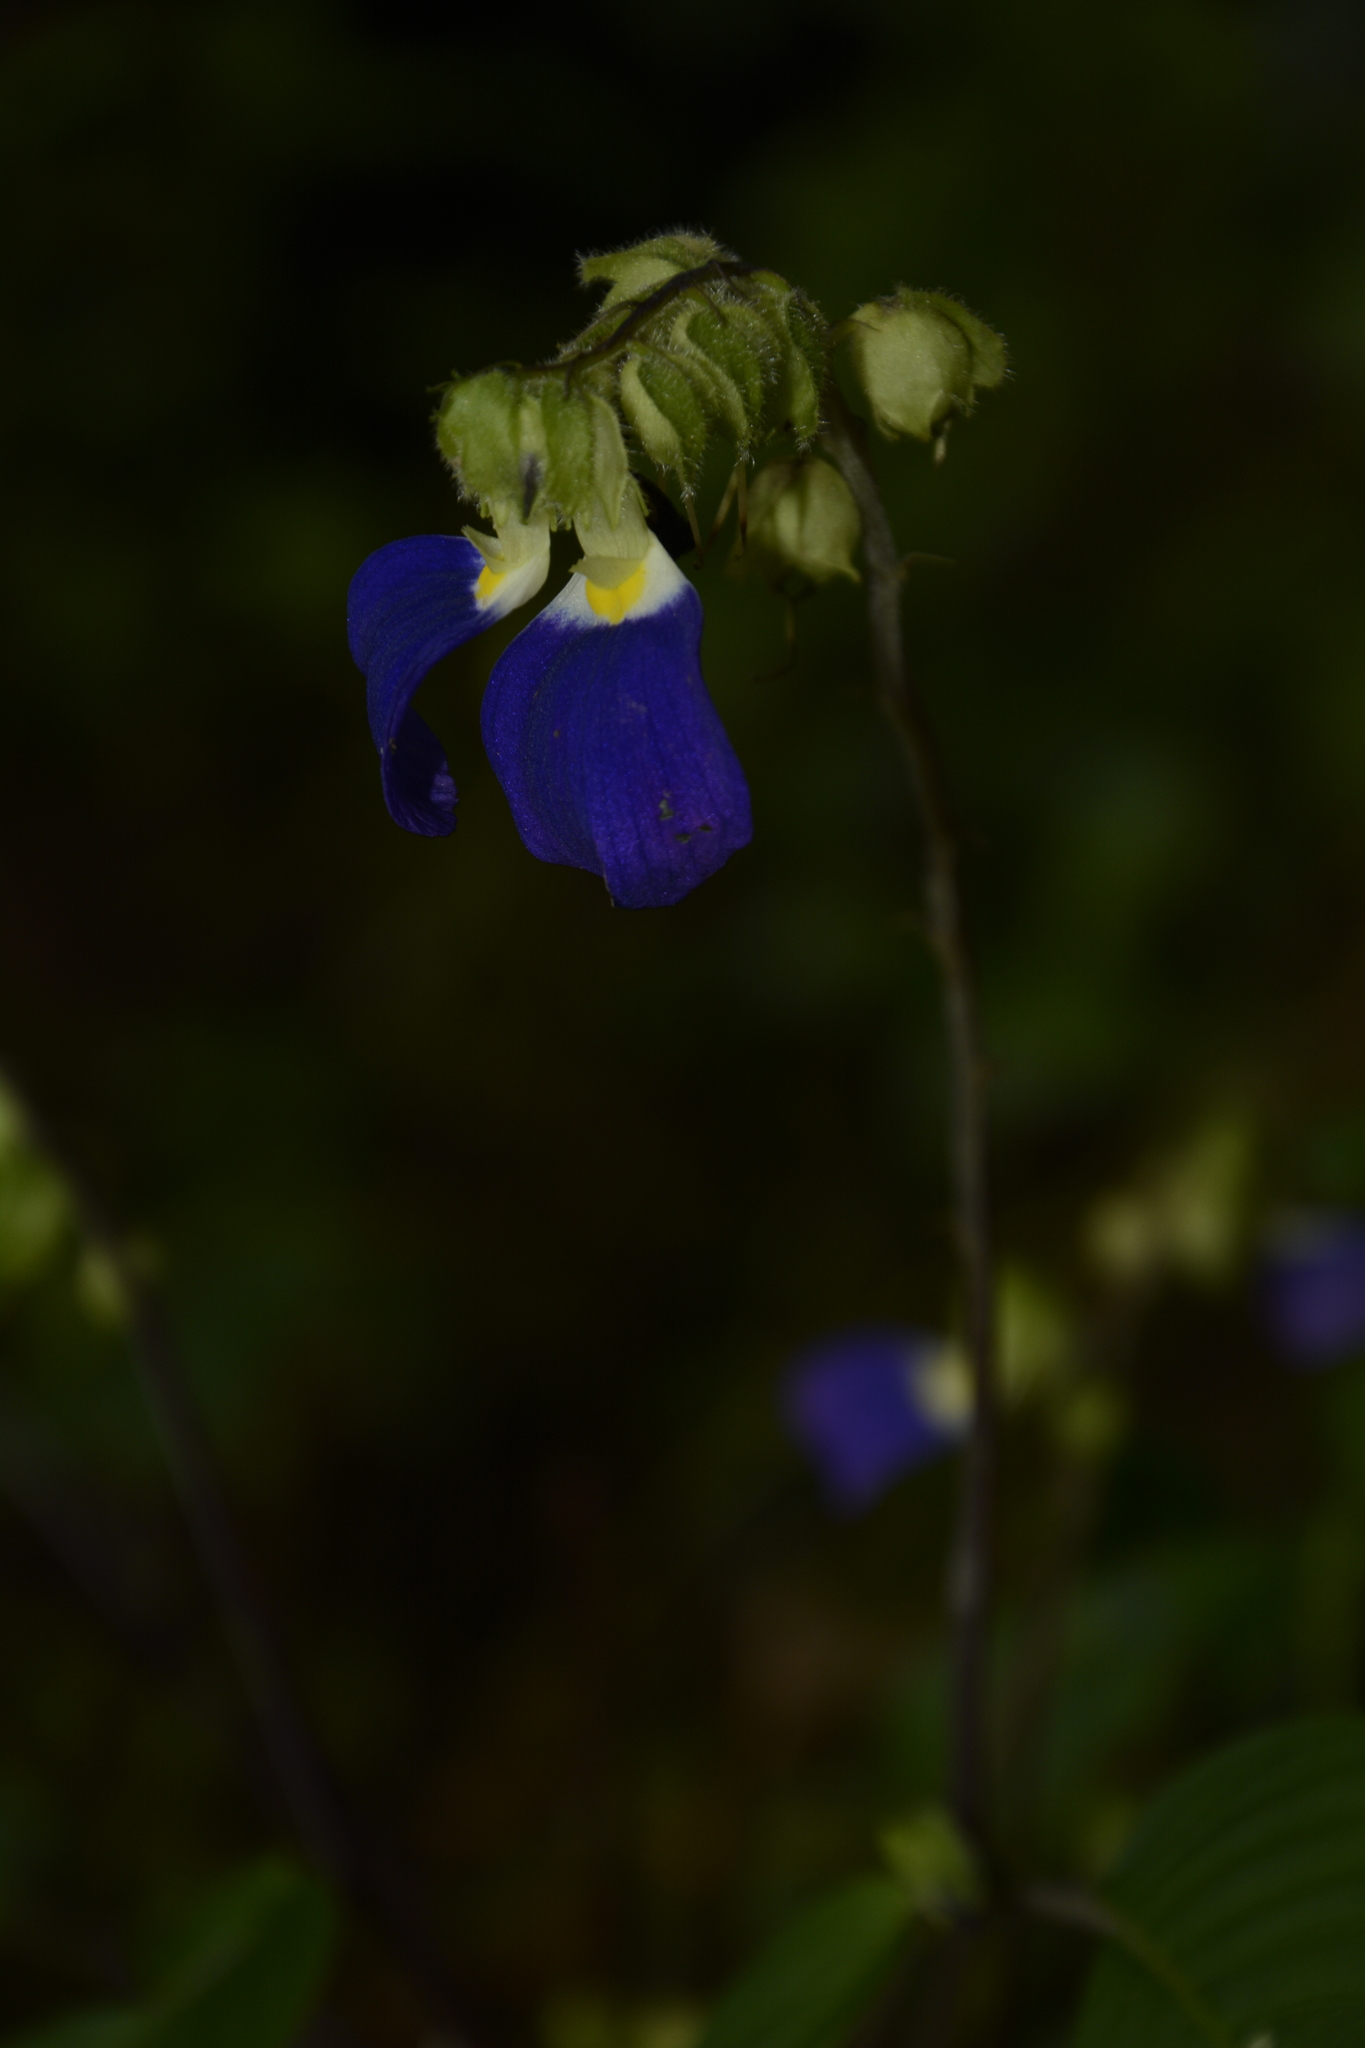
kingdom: Plantae
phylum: Tracheophyta
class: Magnoliopsida
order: Lamiales
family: Gesneriaceae
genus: Rhynchoglossum
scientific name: Rhynchoglossum notonianum
